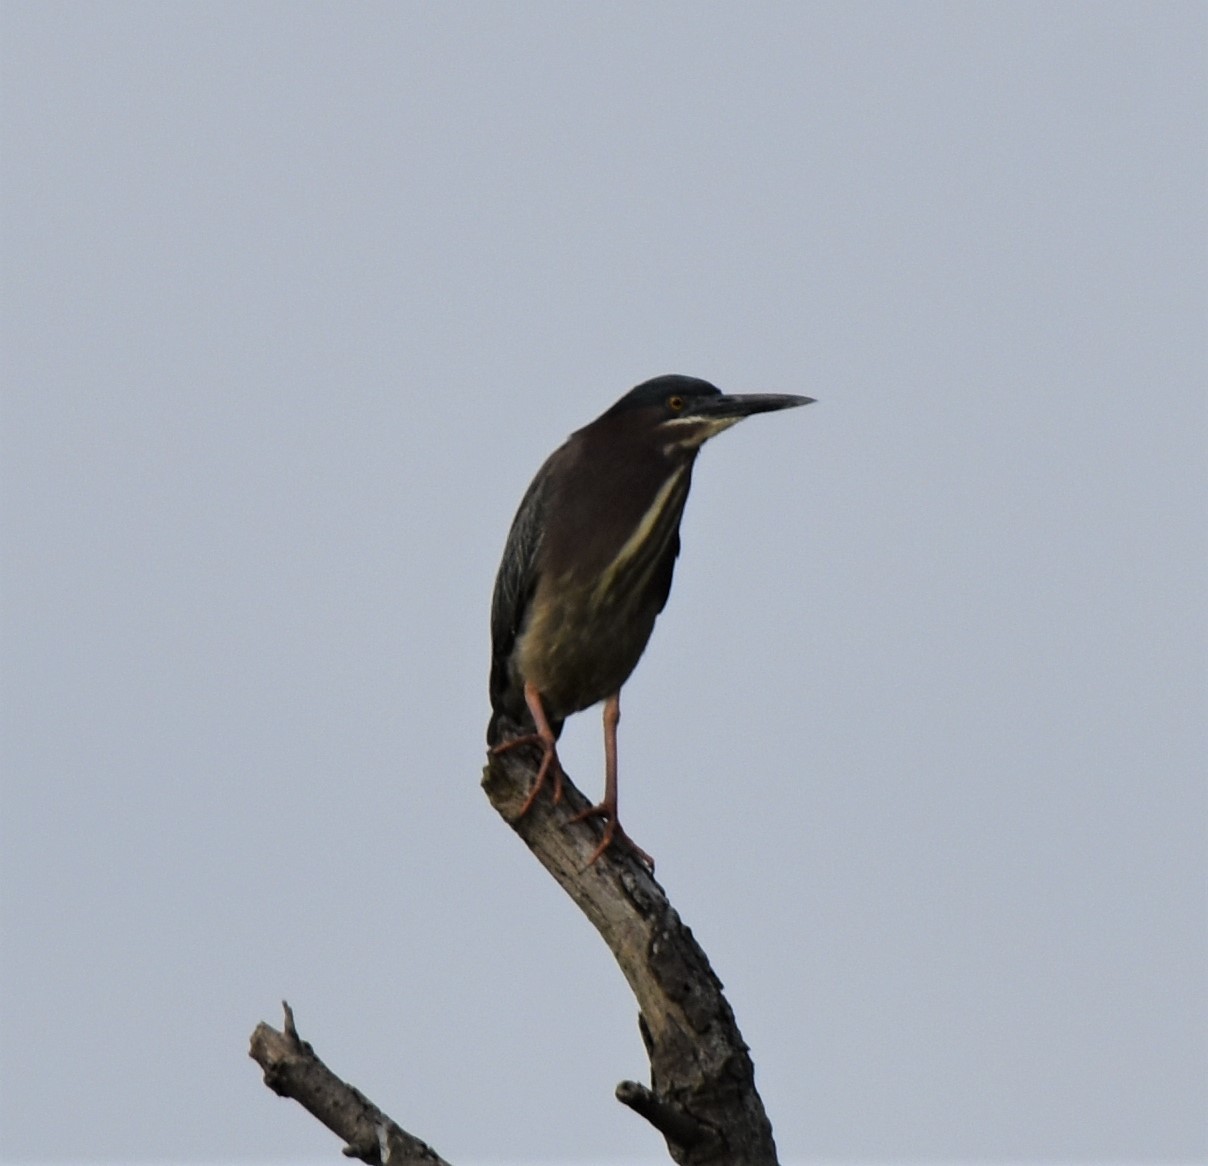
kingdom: Animalia
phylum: Chordata
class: Aves
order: Pelecaniformes
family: Ardeidae
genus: Butorides
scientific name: Butorides virescens
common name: Green heron
